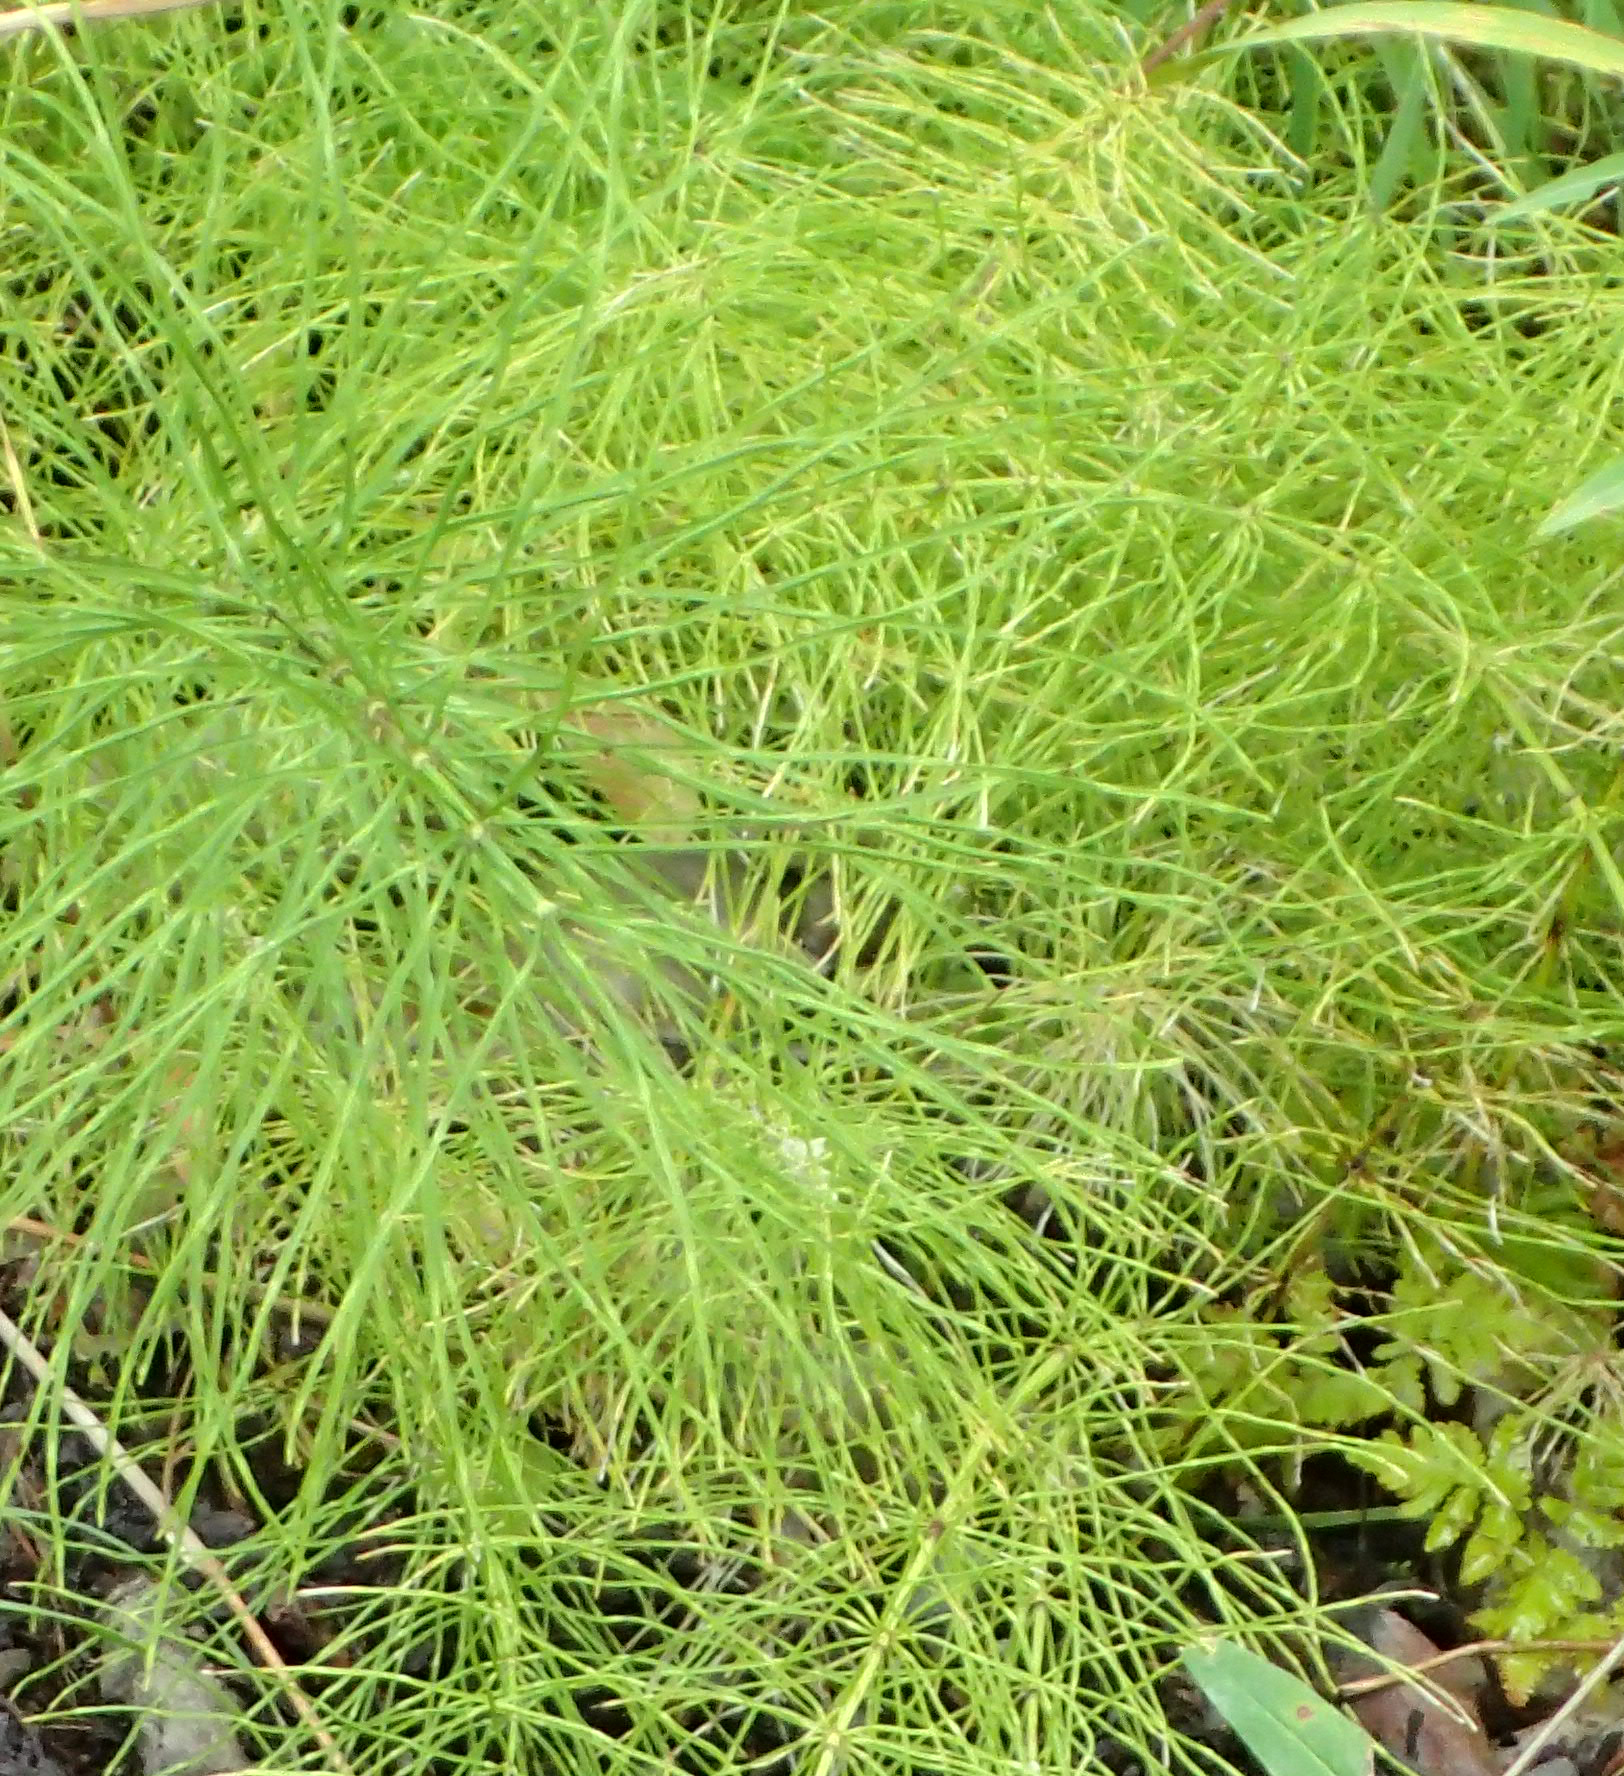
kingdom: Plantae
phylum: Tracheophyta
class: Polypodiopsida
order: Equisetales
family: Equisetaceae
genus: Equisetum
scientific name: Equisetum arvense
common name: Field horsetail
